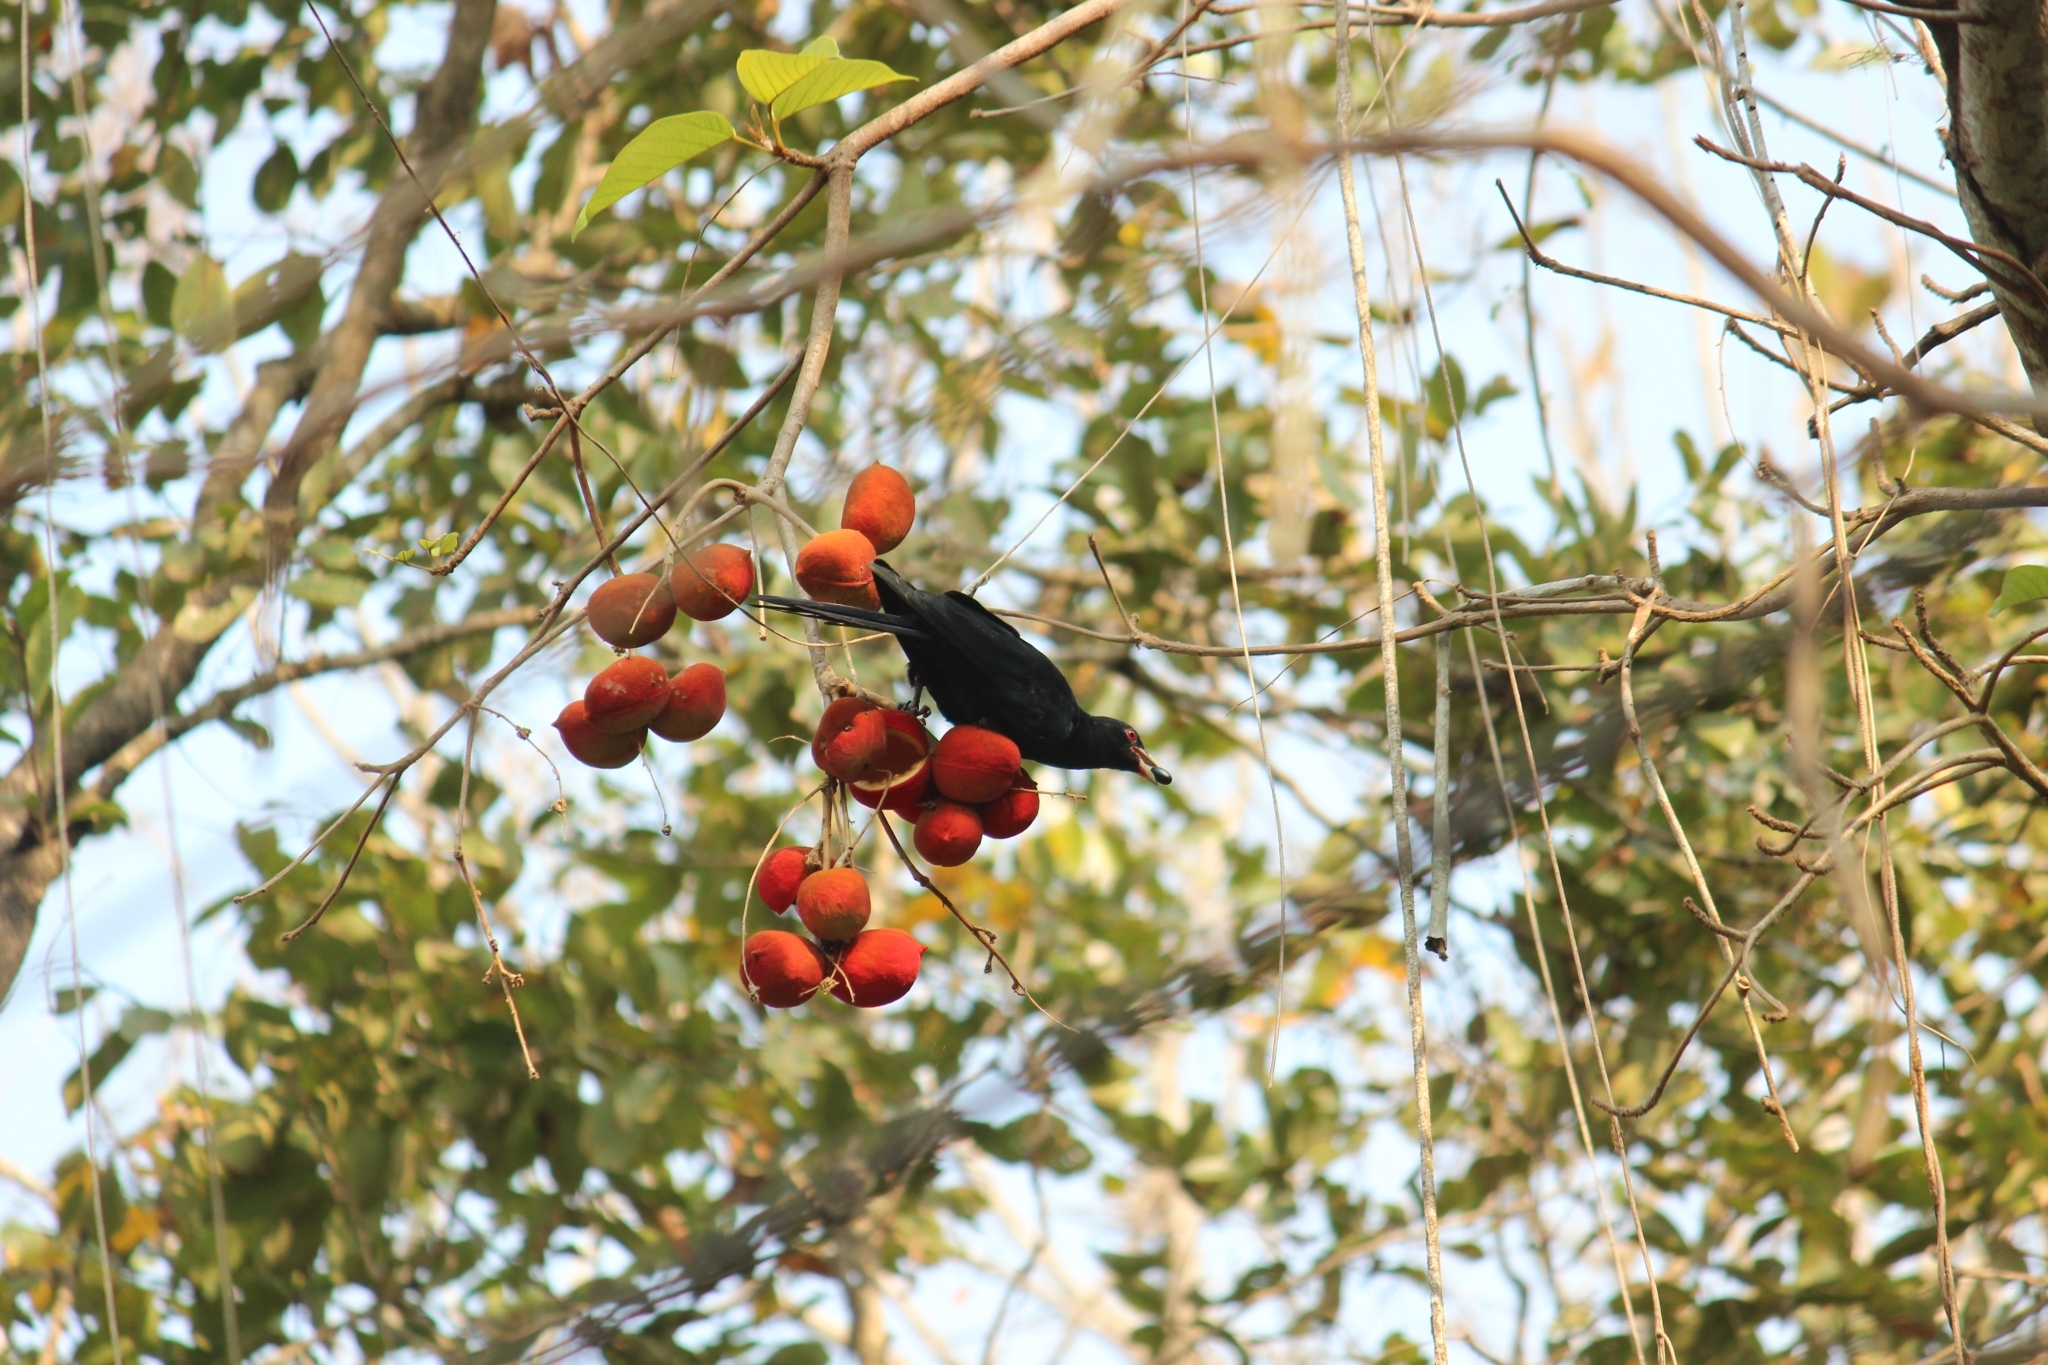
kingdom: Animalia
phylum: Chordata
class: Aves
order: Cuculiformes
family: Cuculidae
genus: Eudynamys
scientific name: Eudynamys scolopaceus
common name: Asian koel
